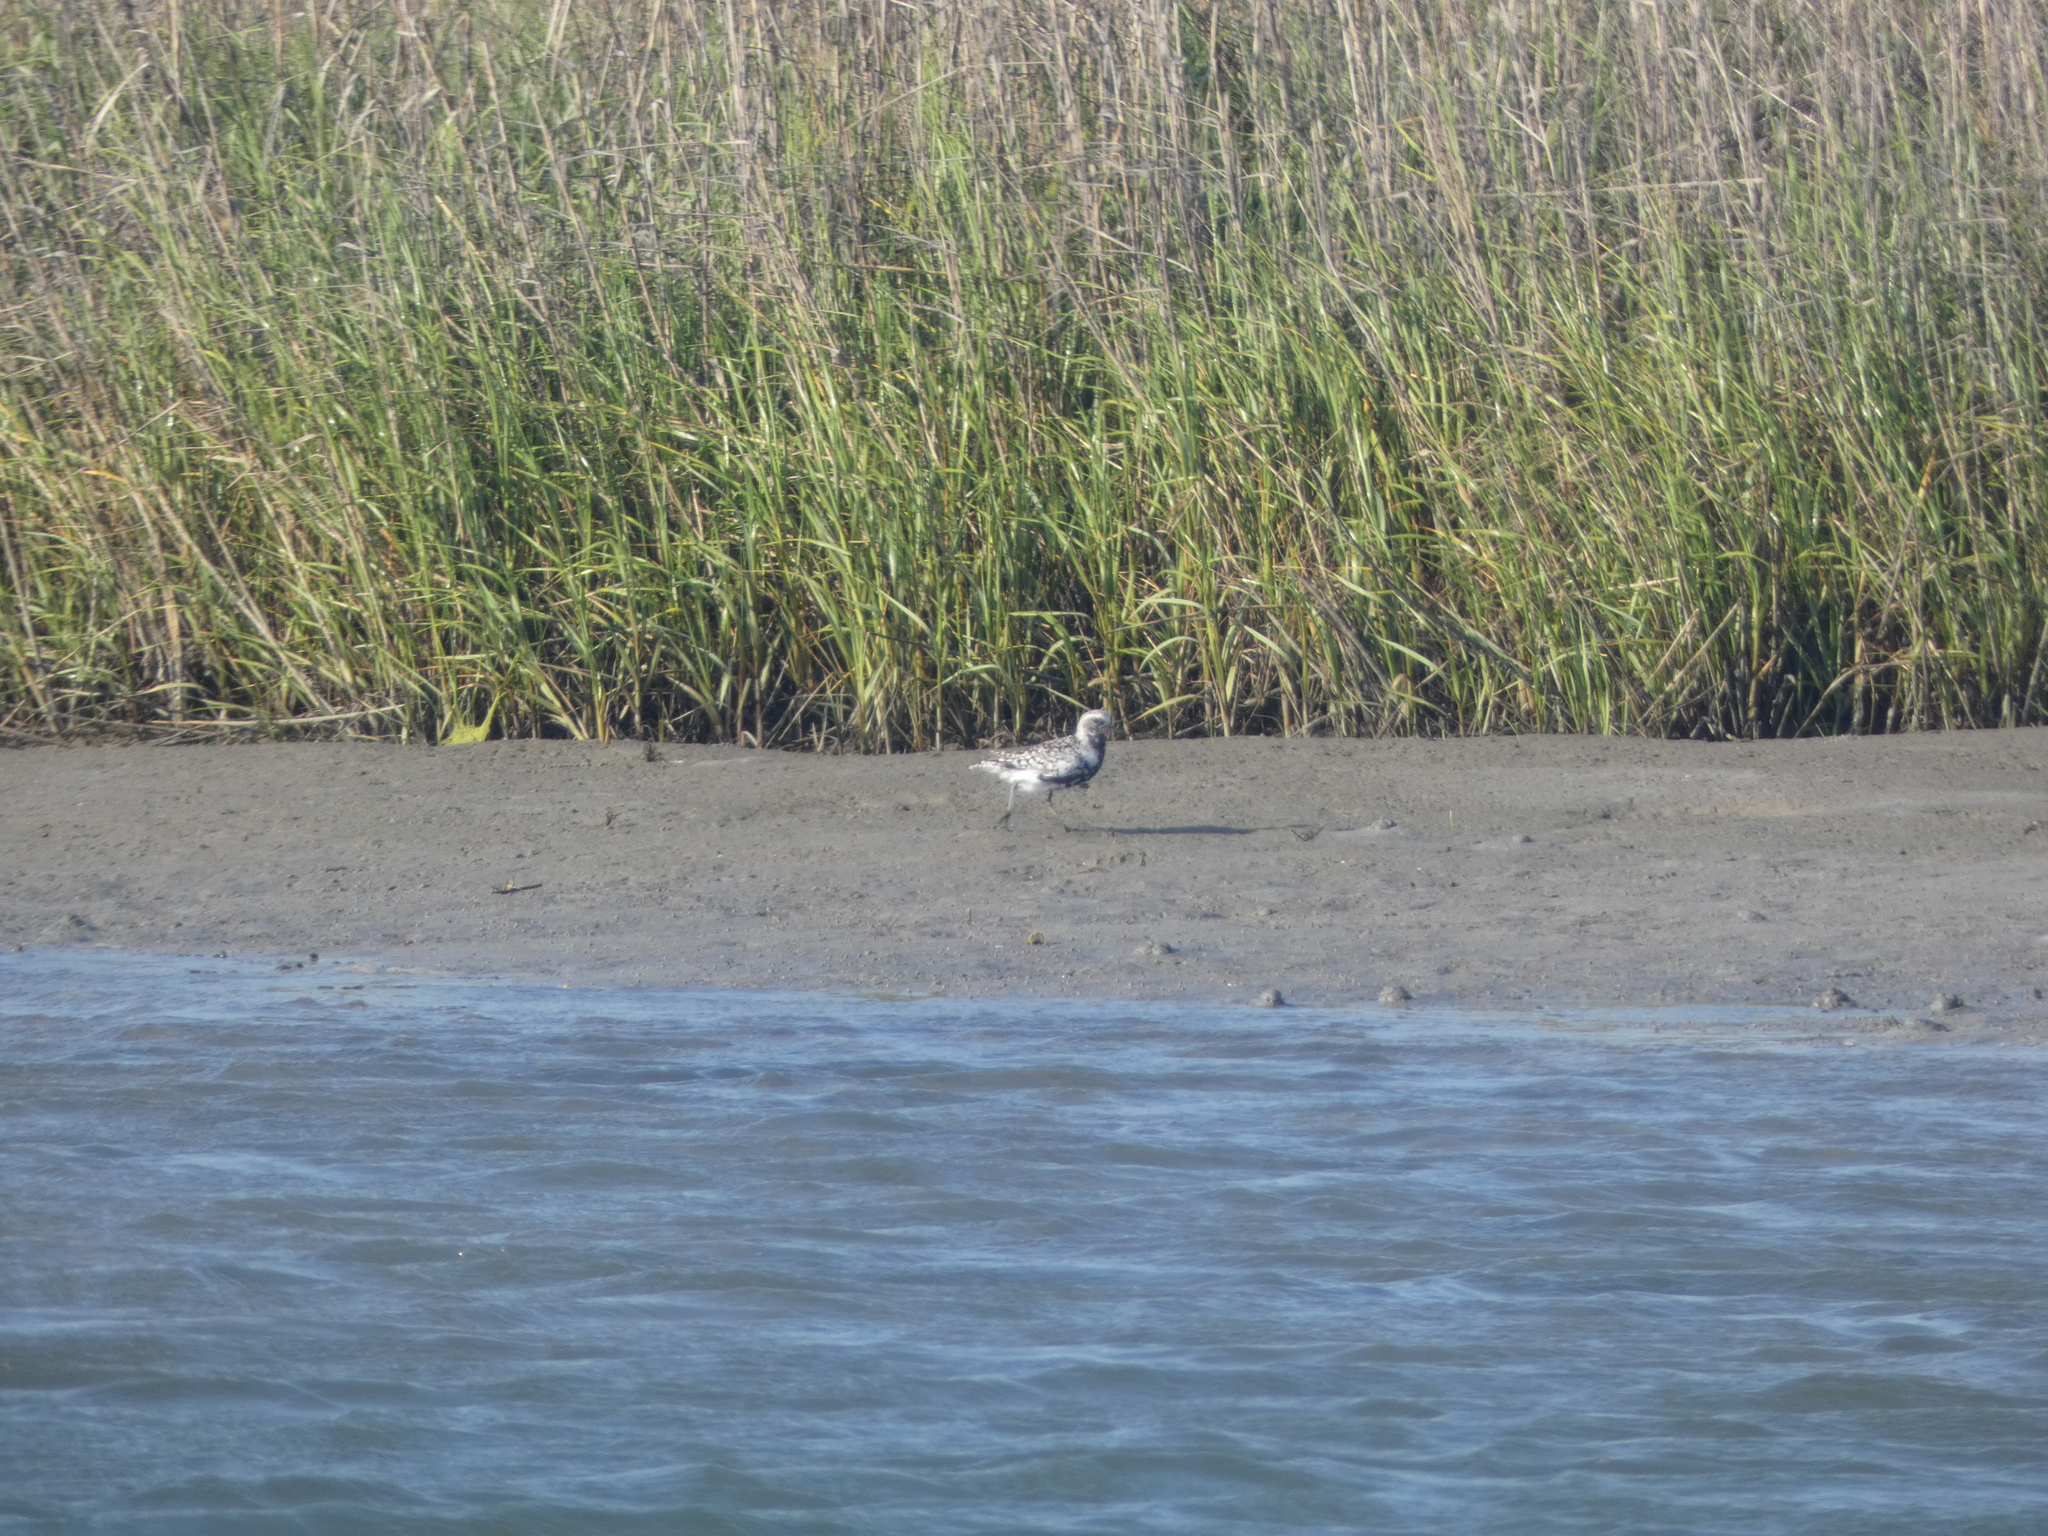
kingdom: Animalia
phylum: Chordata
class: Aves
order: Charadriiformes
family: Charadriidae
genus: Pluvialis
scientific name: Pluvialis squatarola
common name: Grey plover
